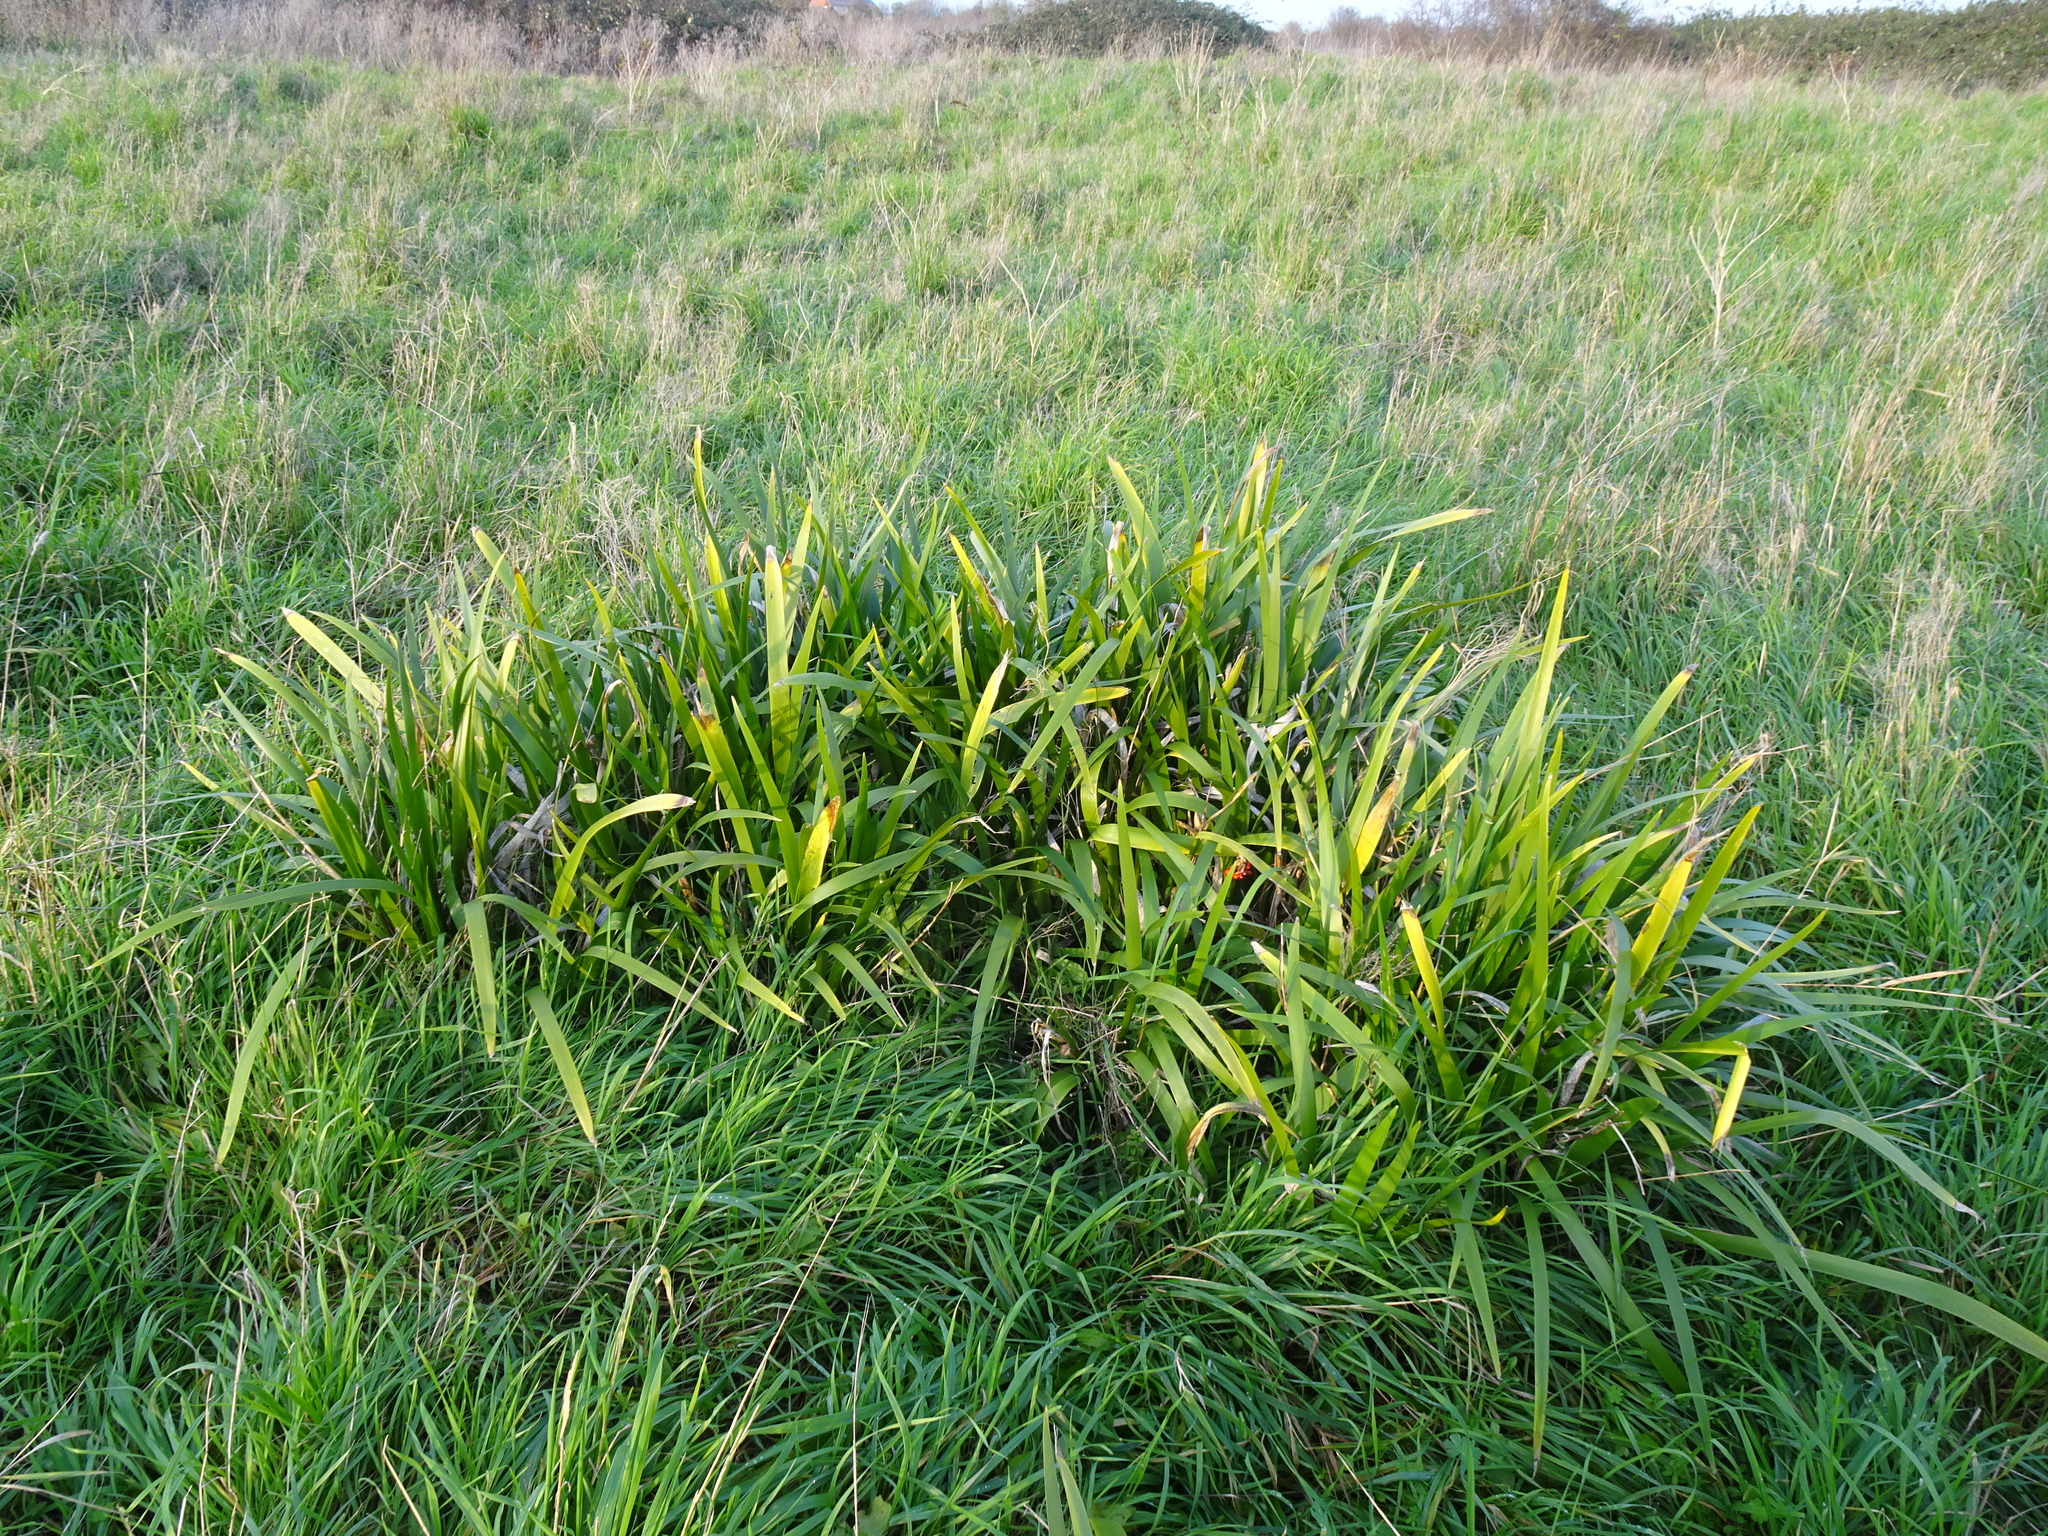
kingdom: Plantae
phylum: Tracheophyta
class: Liliopsida
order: Asparagales
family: Iridaceae
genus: Iris
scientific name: Iris foetidissima
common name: Stinking iris
